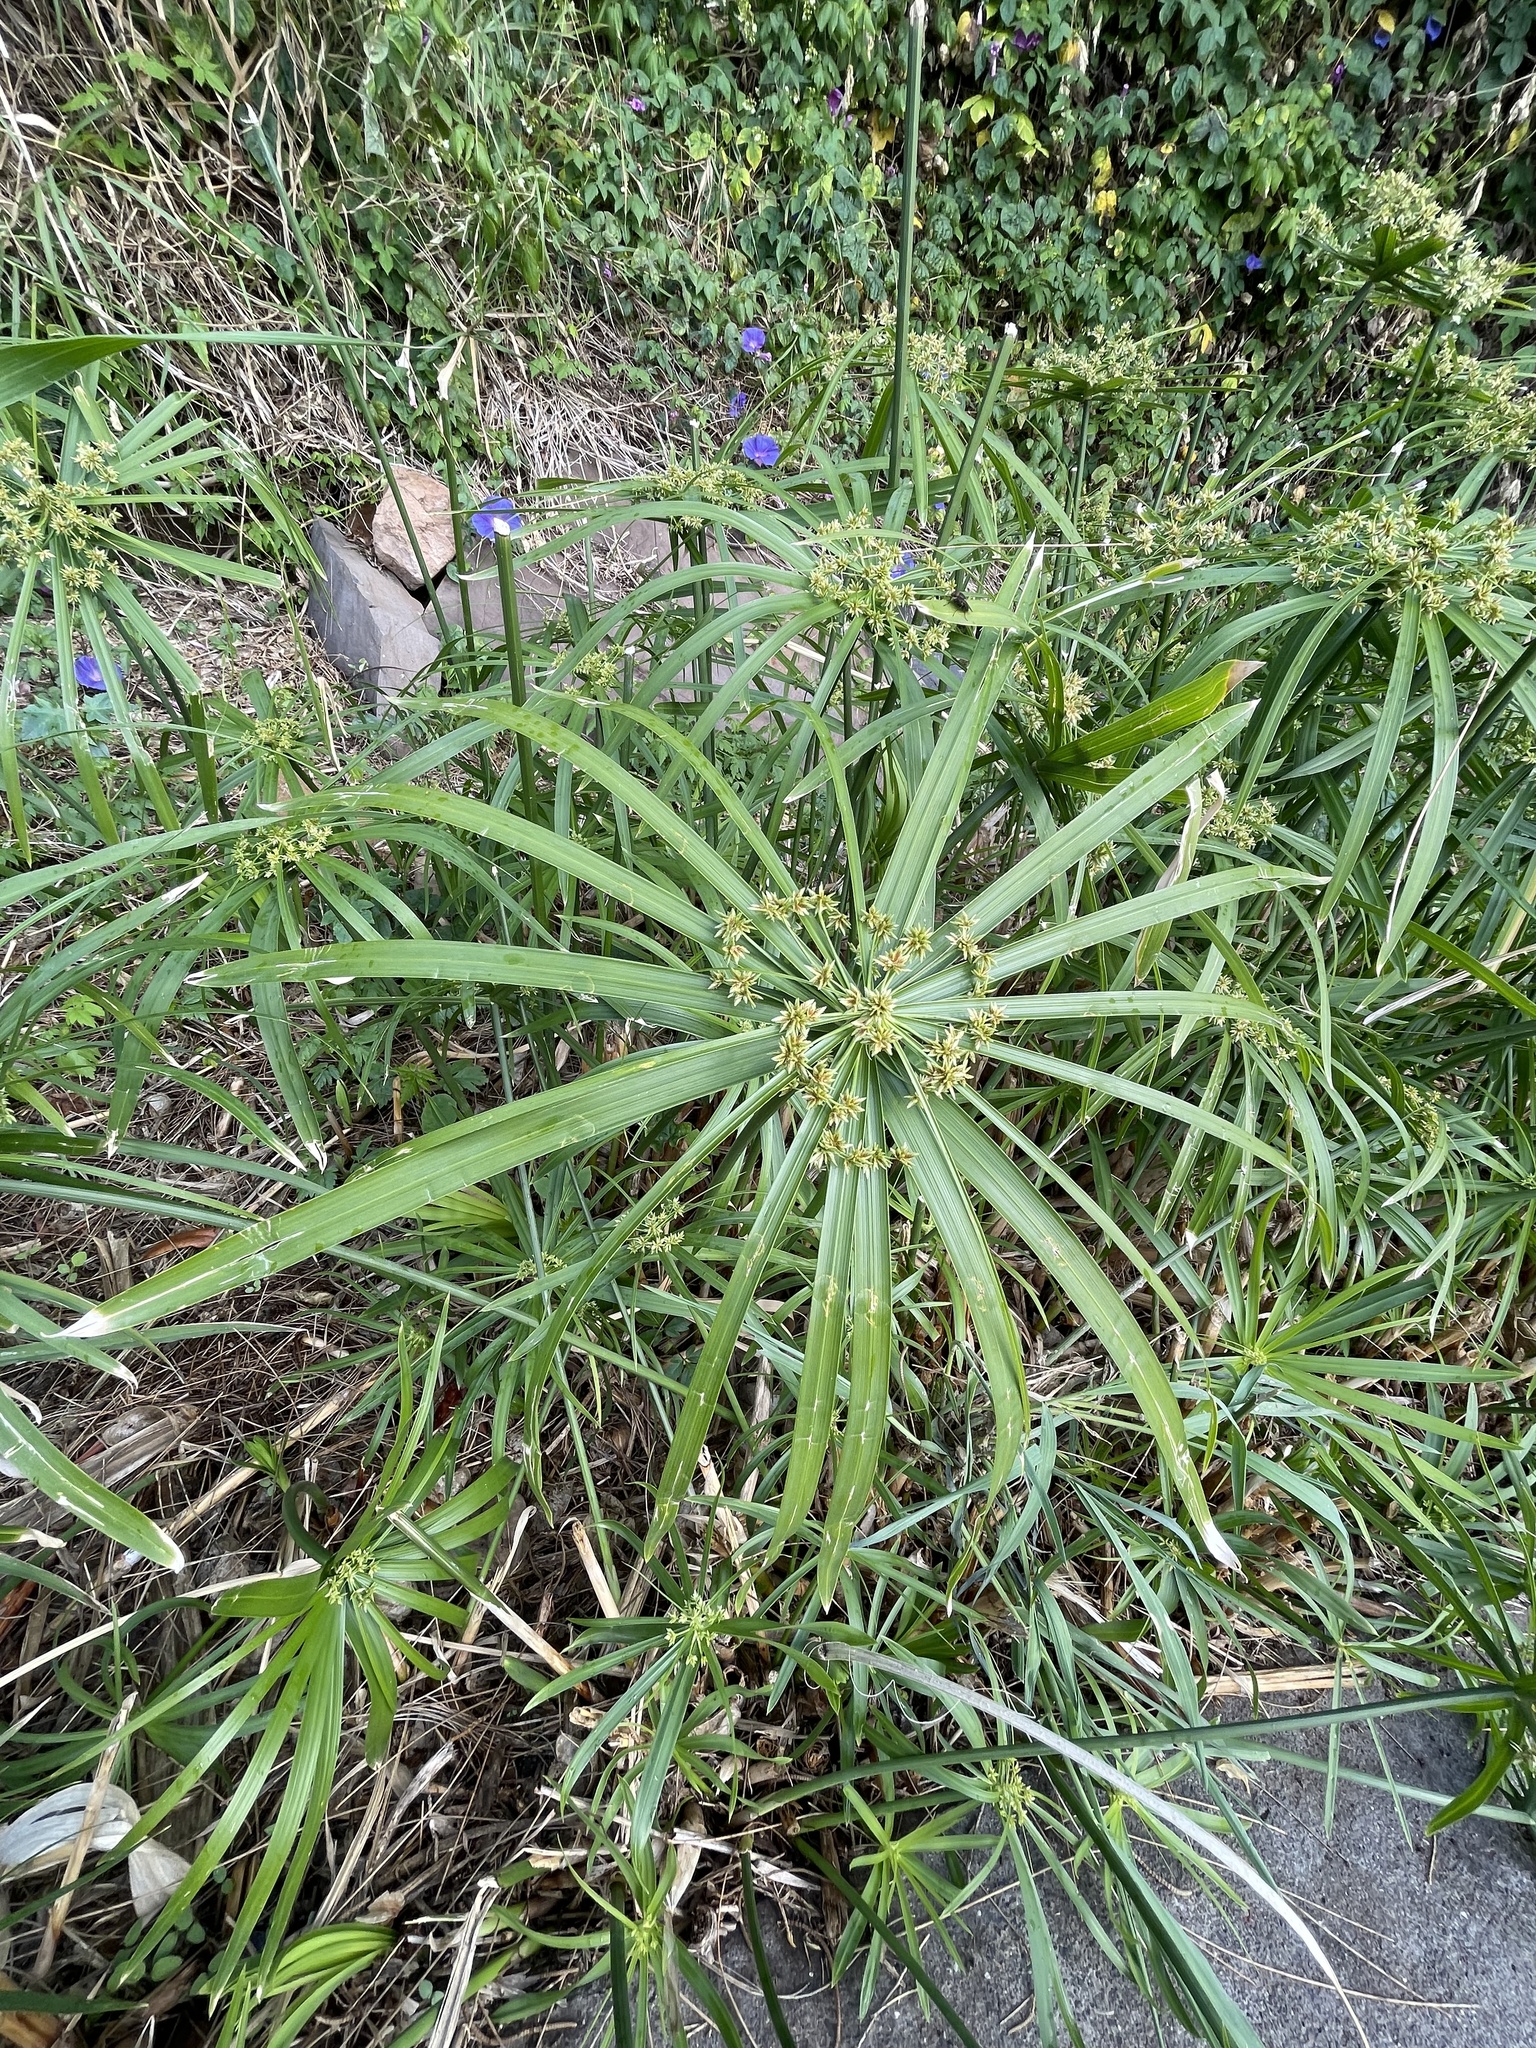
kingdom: Plantae
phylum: Tracheophyta
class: Liliopsida
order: Poales
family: Cyperaceae
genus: Cyperus
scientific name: Cyperus alternifolius
